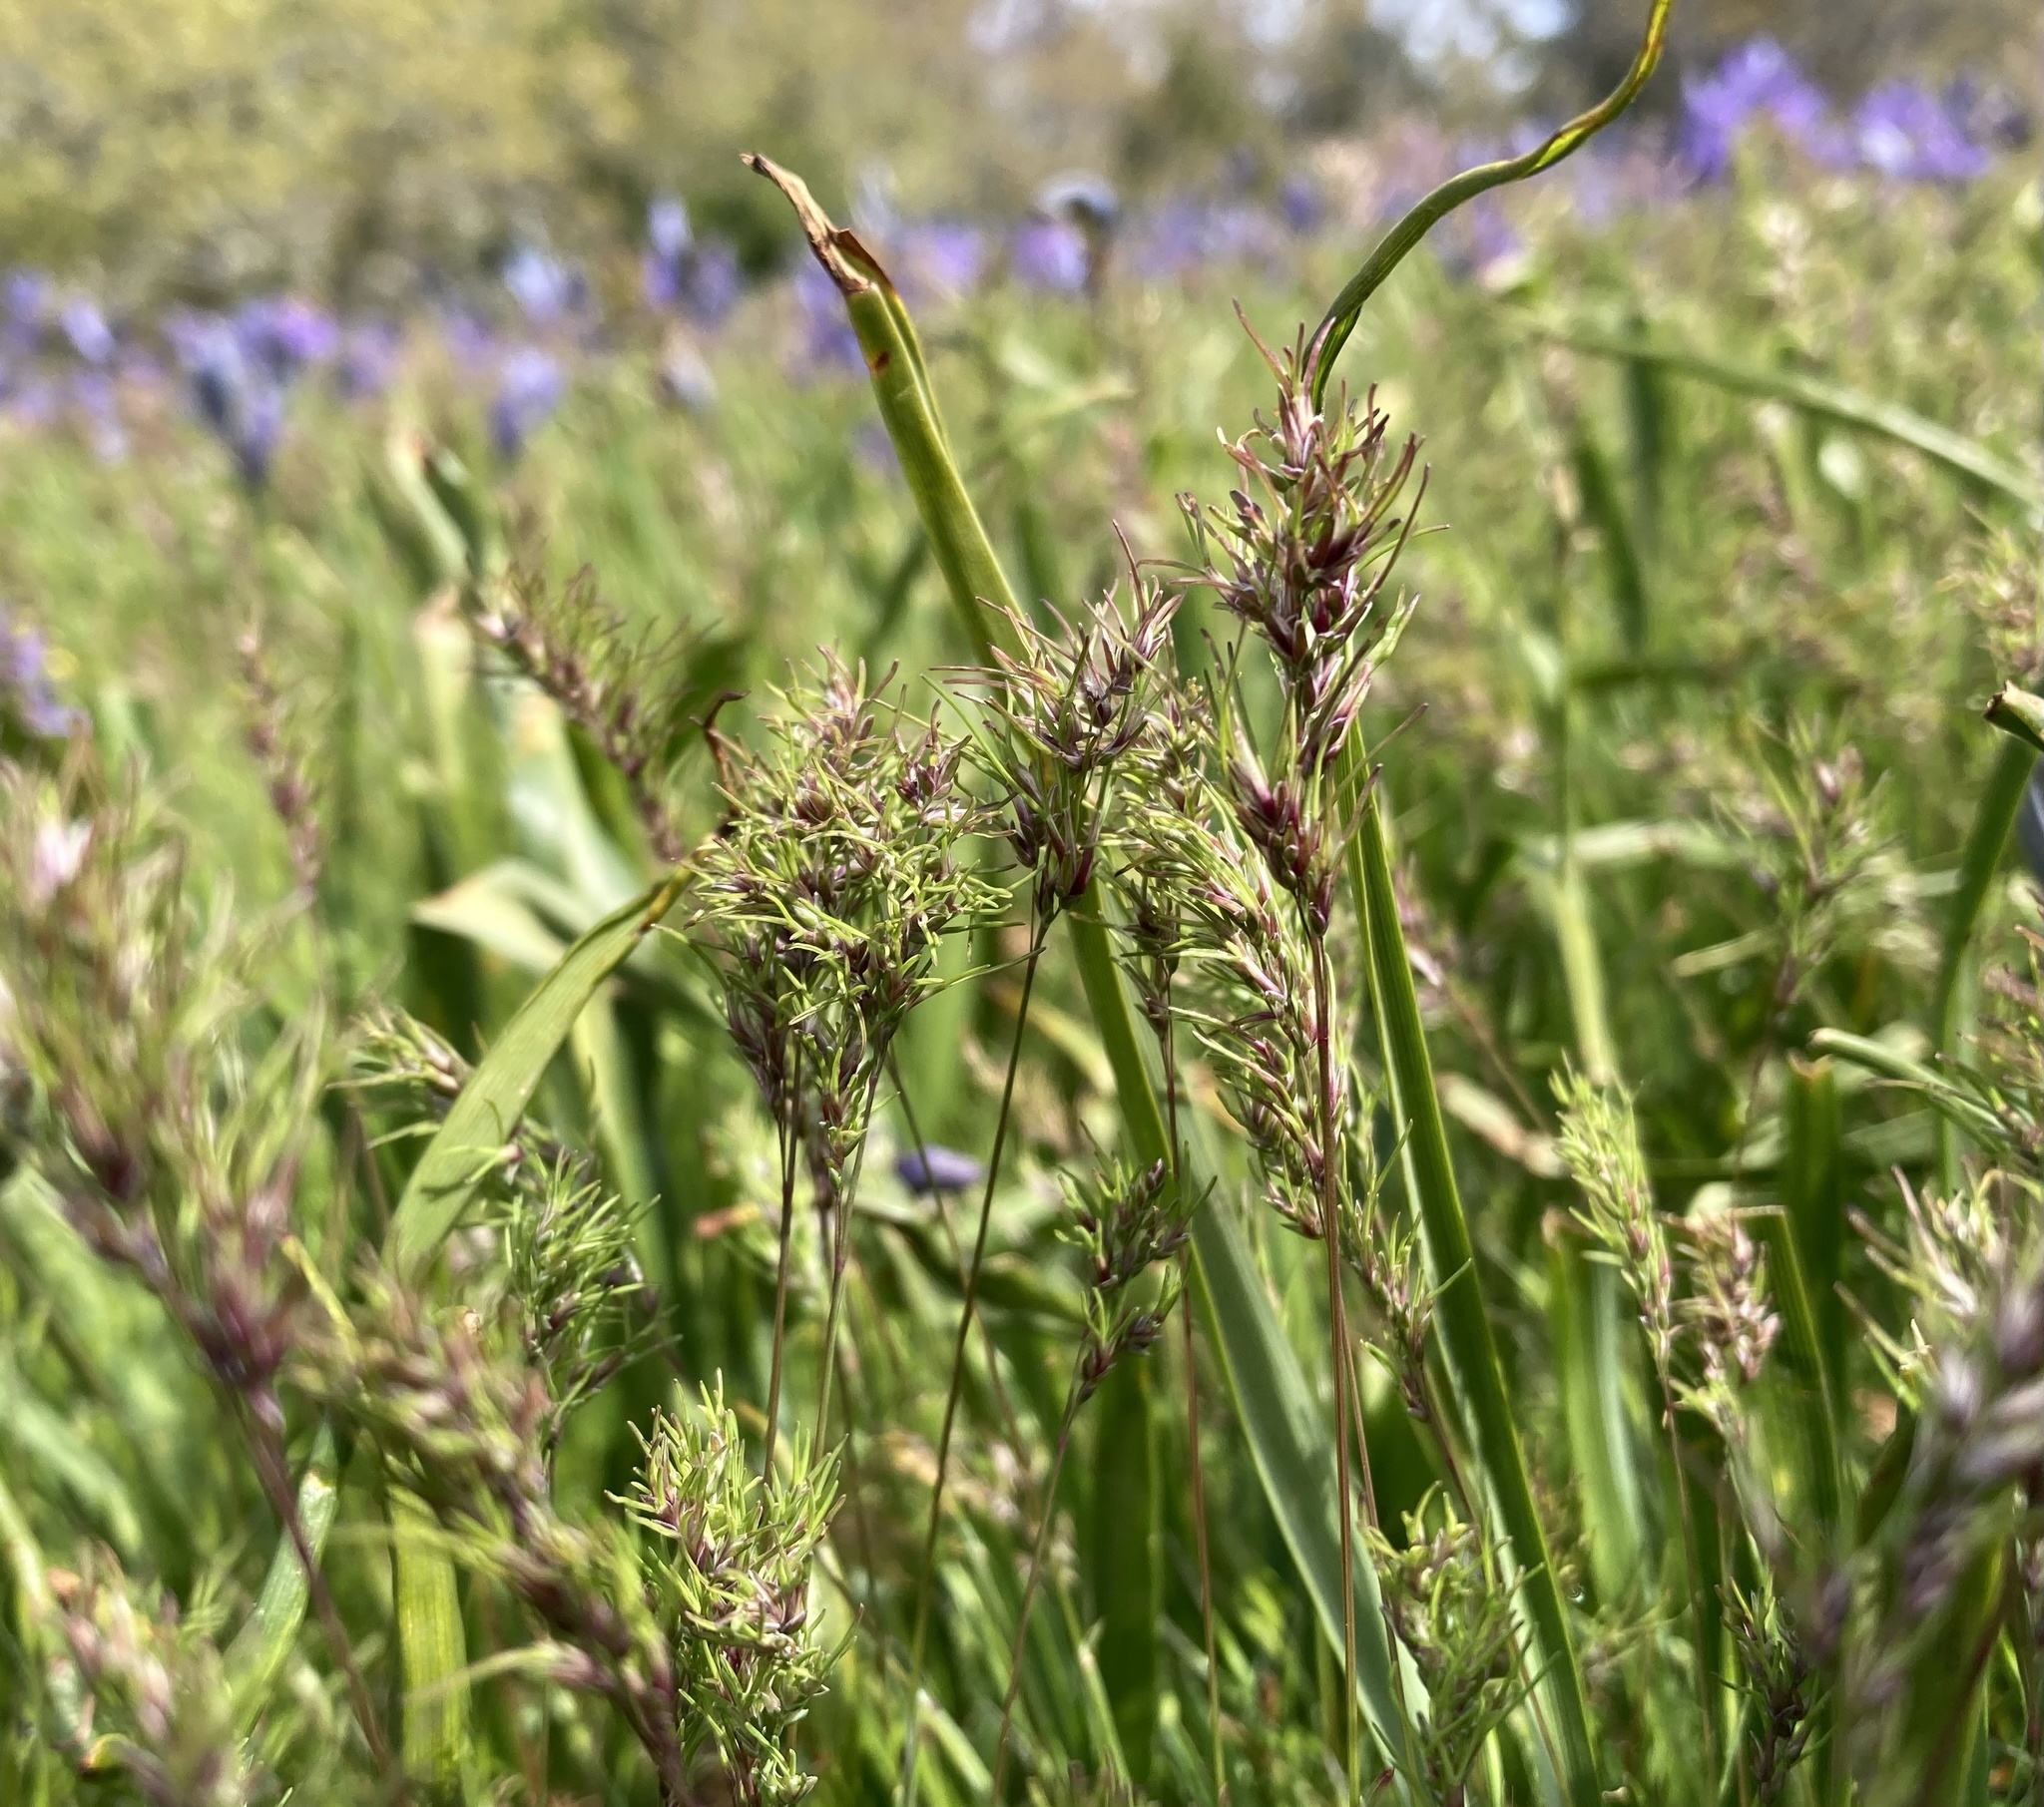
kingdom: Plantae
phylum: Tracheophyta
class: Liliopsida
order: Poales
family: Poaceae
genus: Poa
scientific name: Poa bulbosa
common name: Bulbous bluegrass
